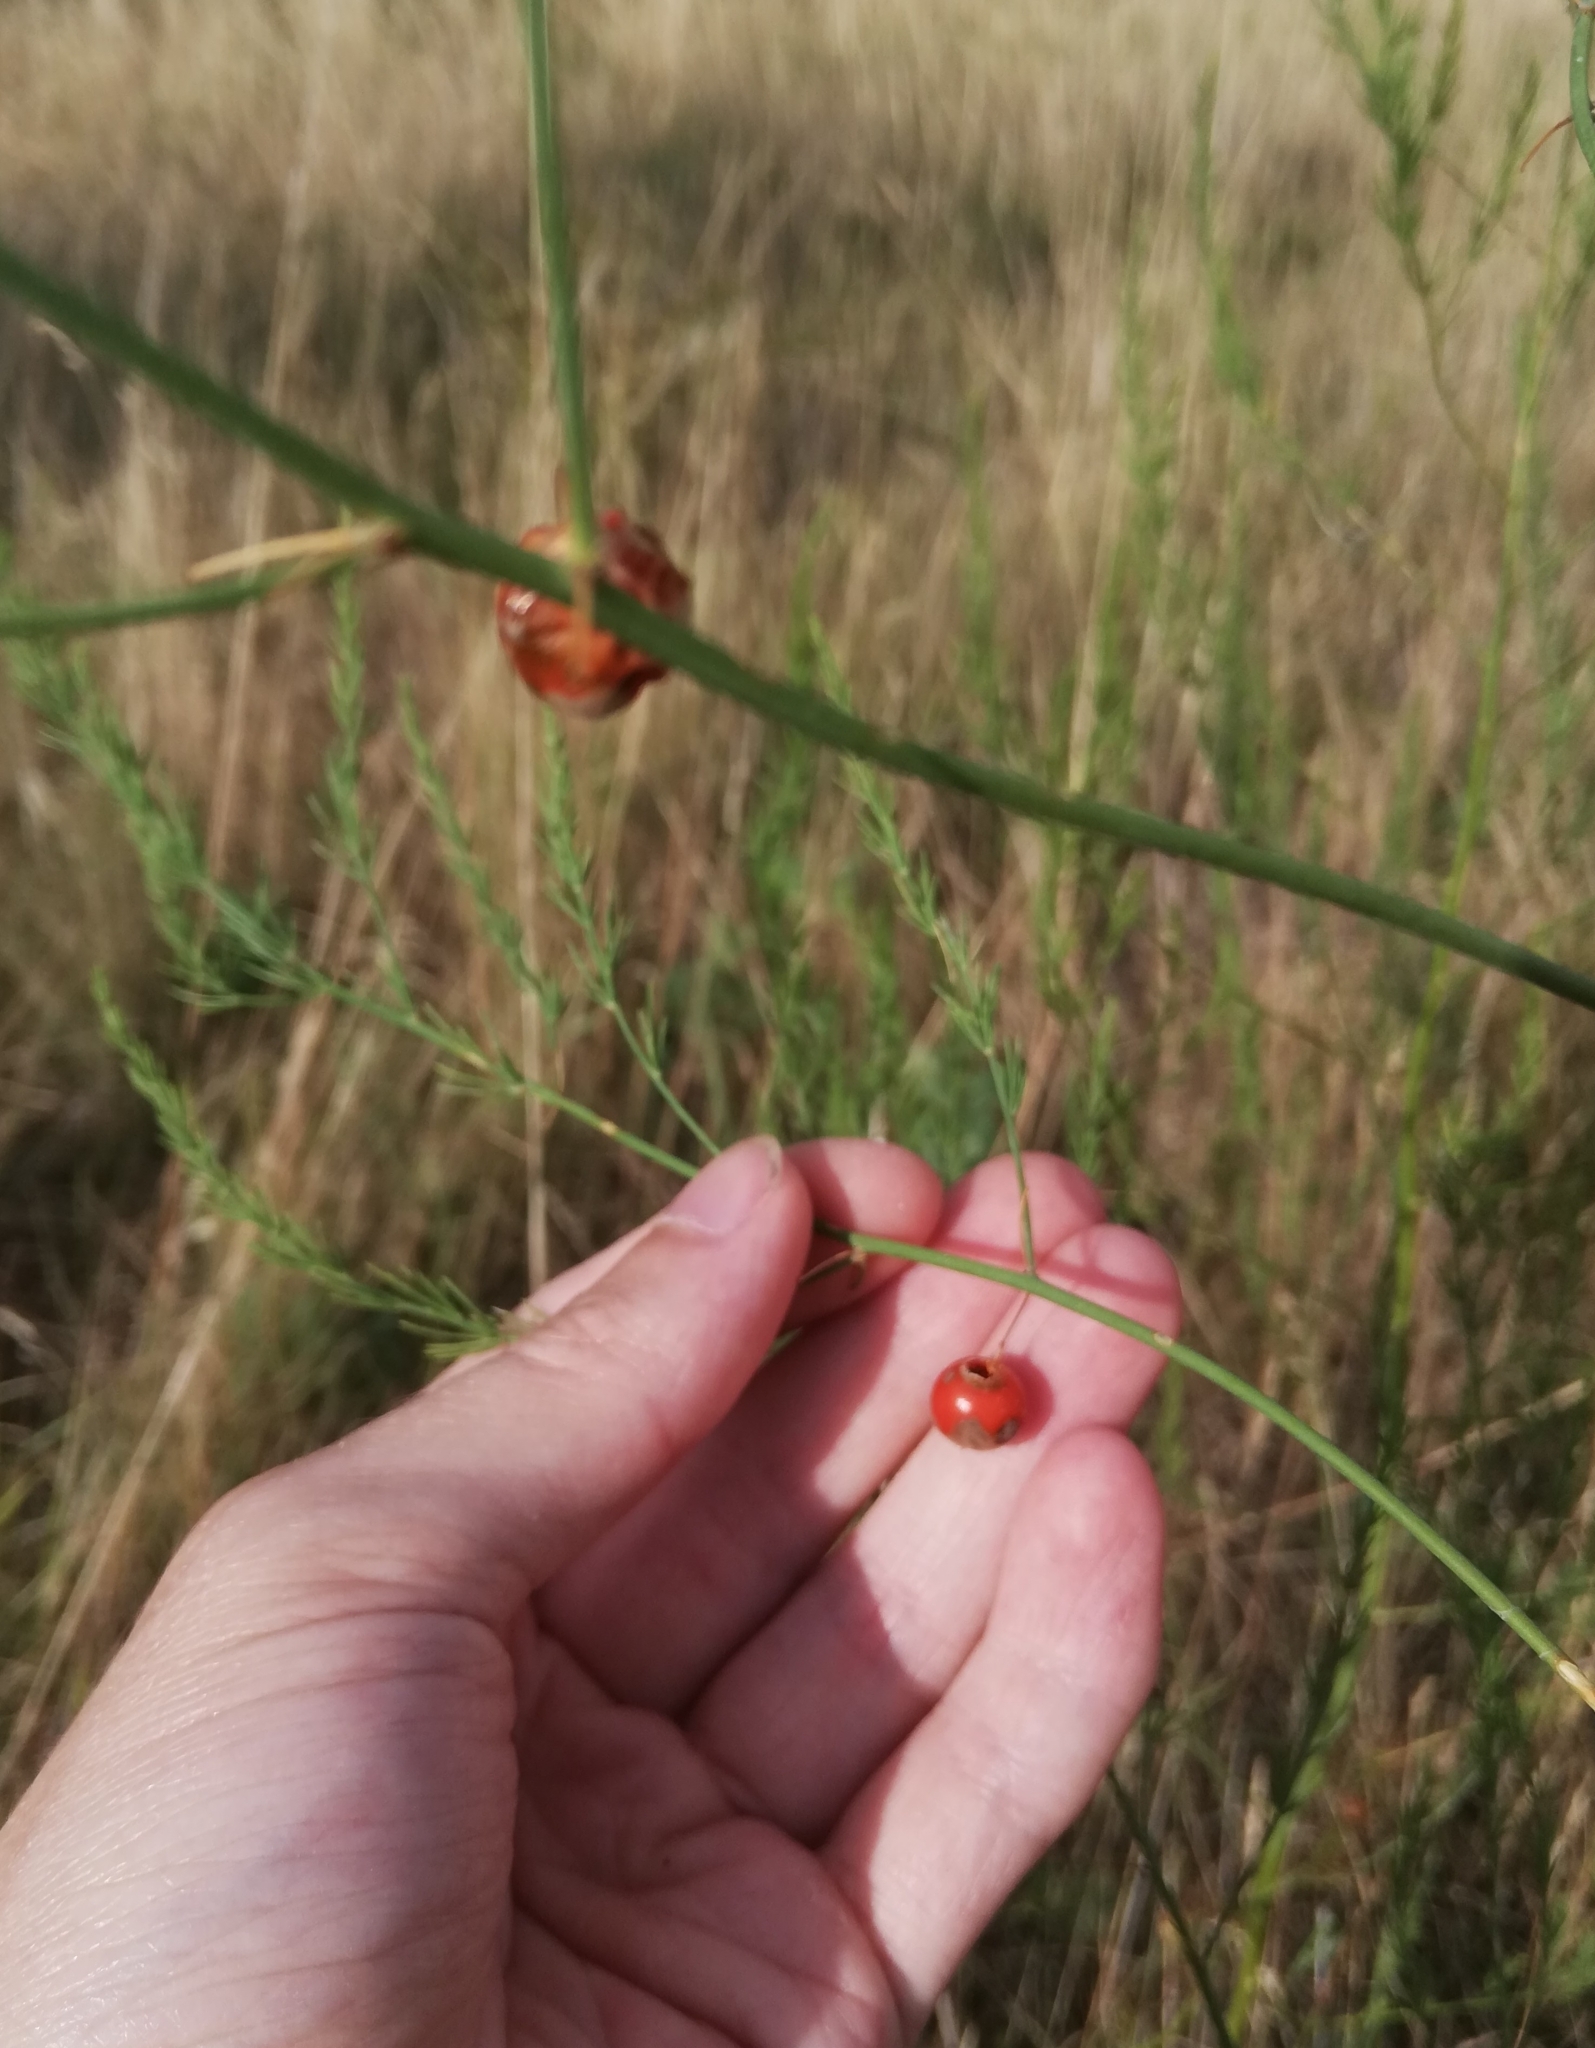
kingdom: Plantae
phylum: Tracheophyta
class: Liliopsida
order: Asparagales
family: Asparagaceae
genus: Asparagus
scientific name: Asparagus officinalis
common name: Garden asparagus
